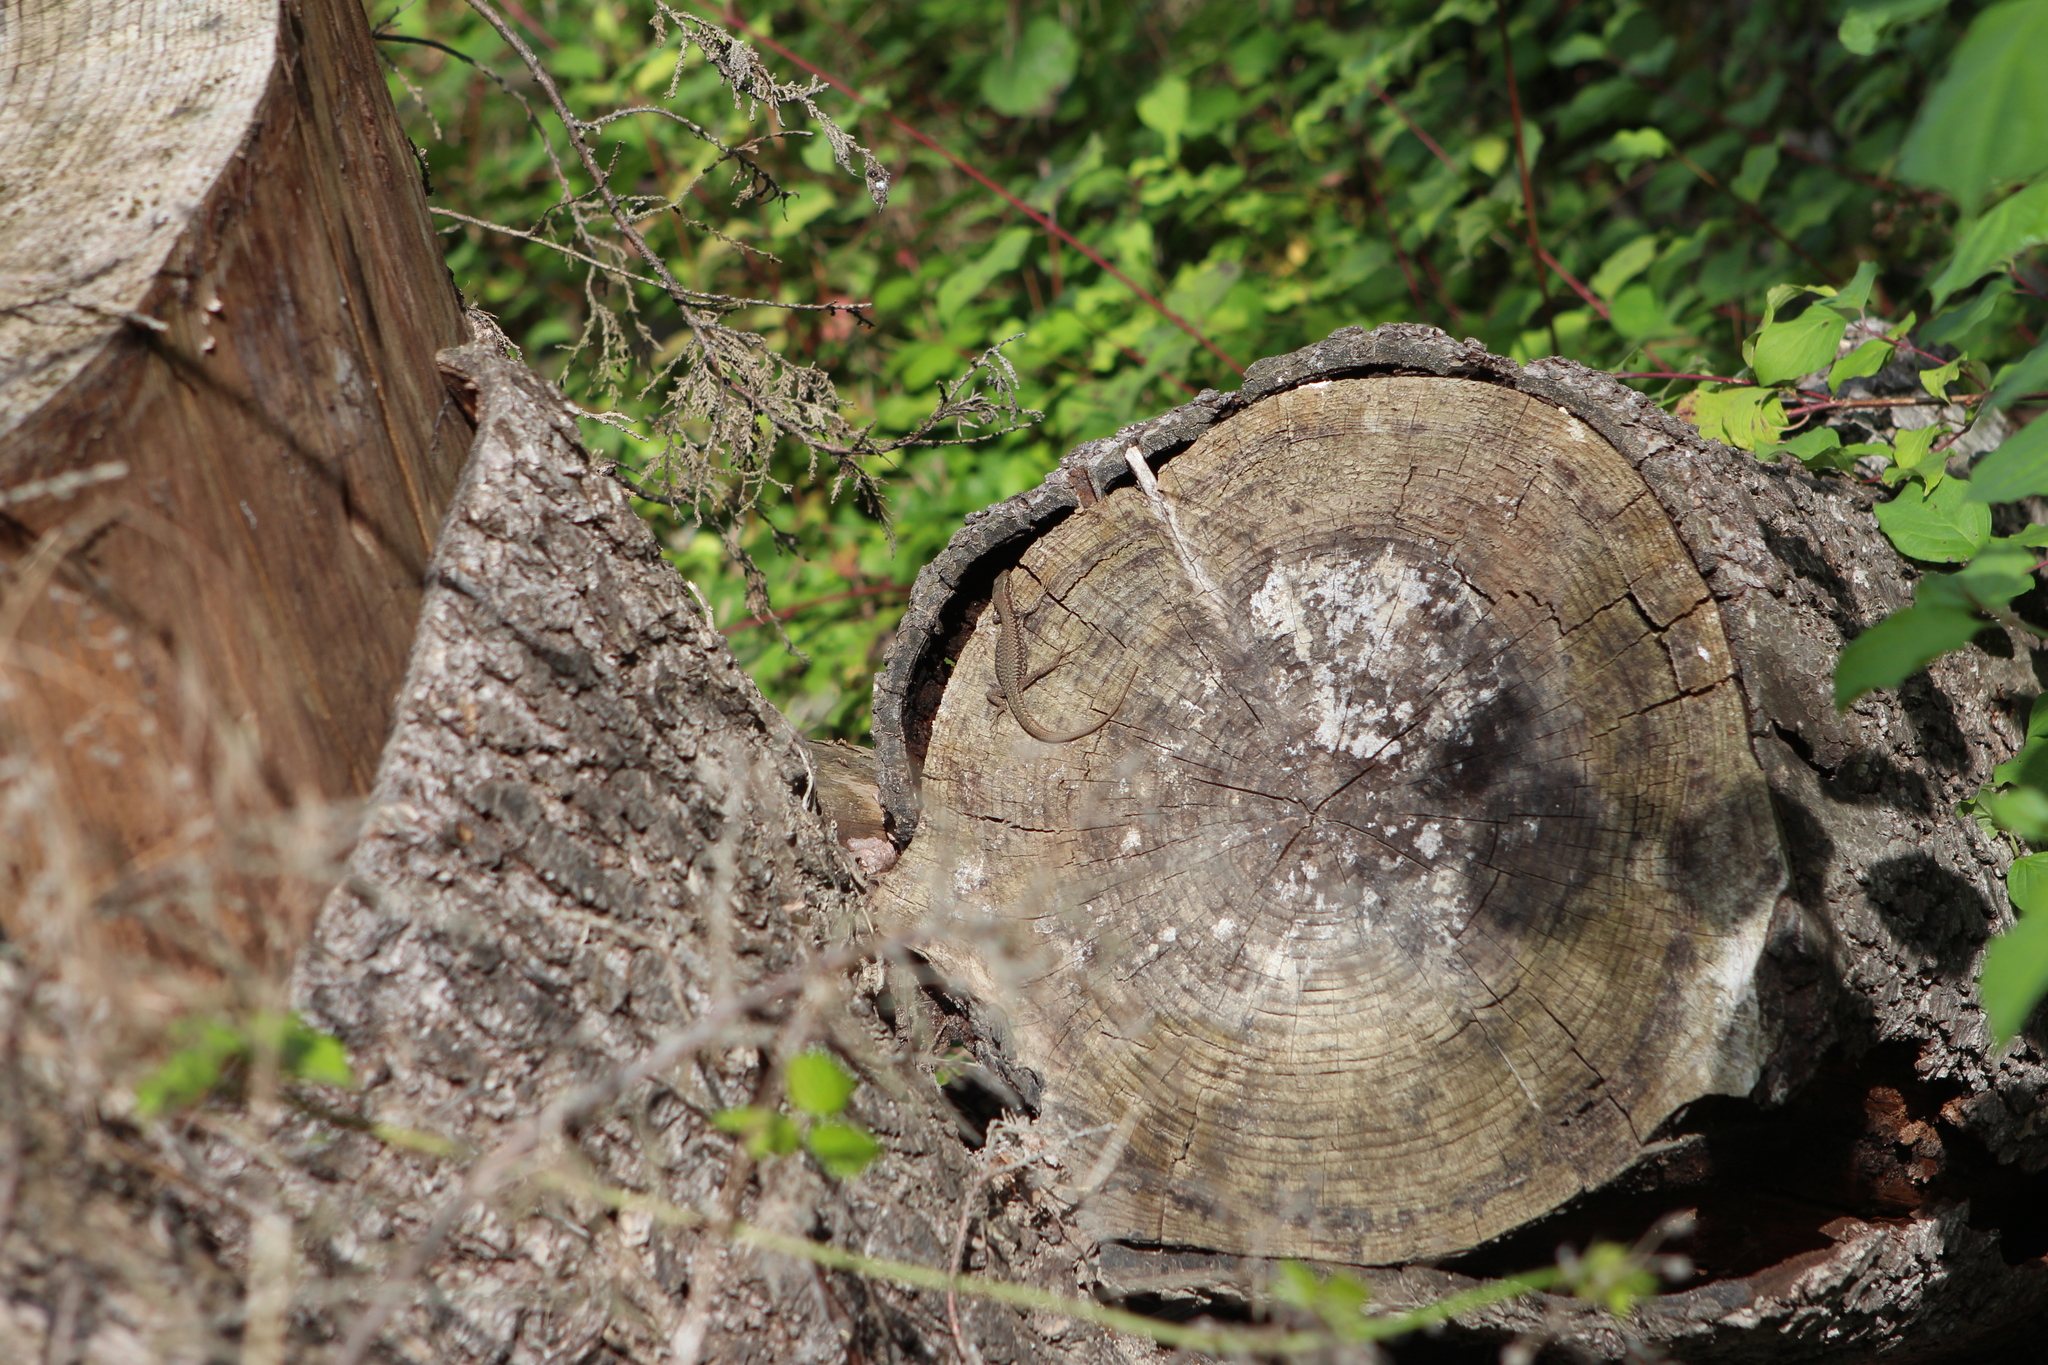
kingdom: Animalia
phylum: Chordata
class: Squamata
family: Lacertidae
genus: Podarcis
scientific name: Podarcis muralis
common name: Common wall lizard
